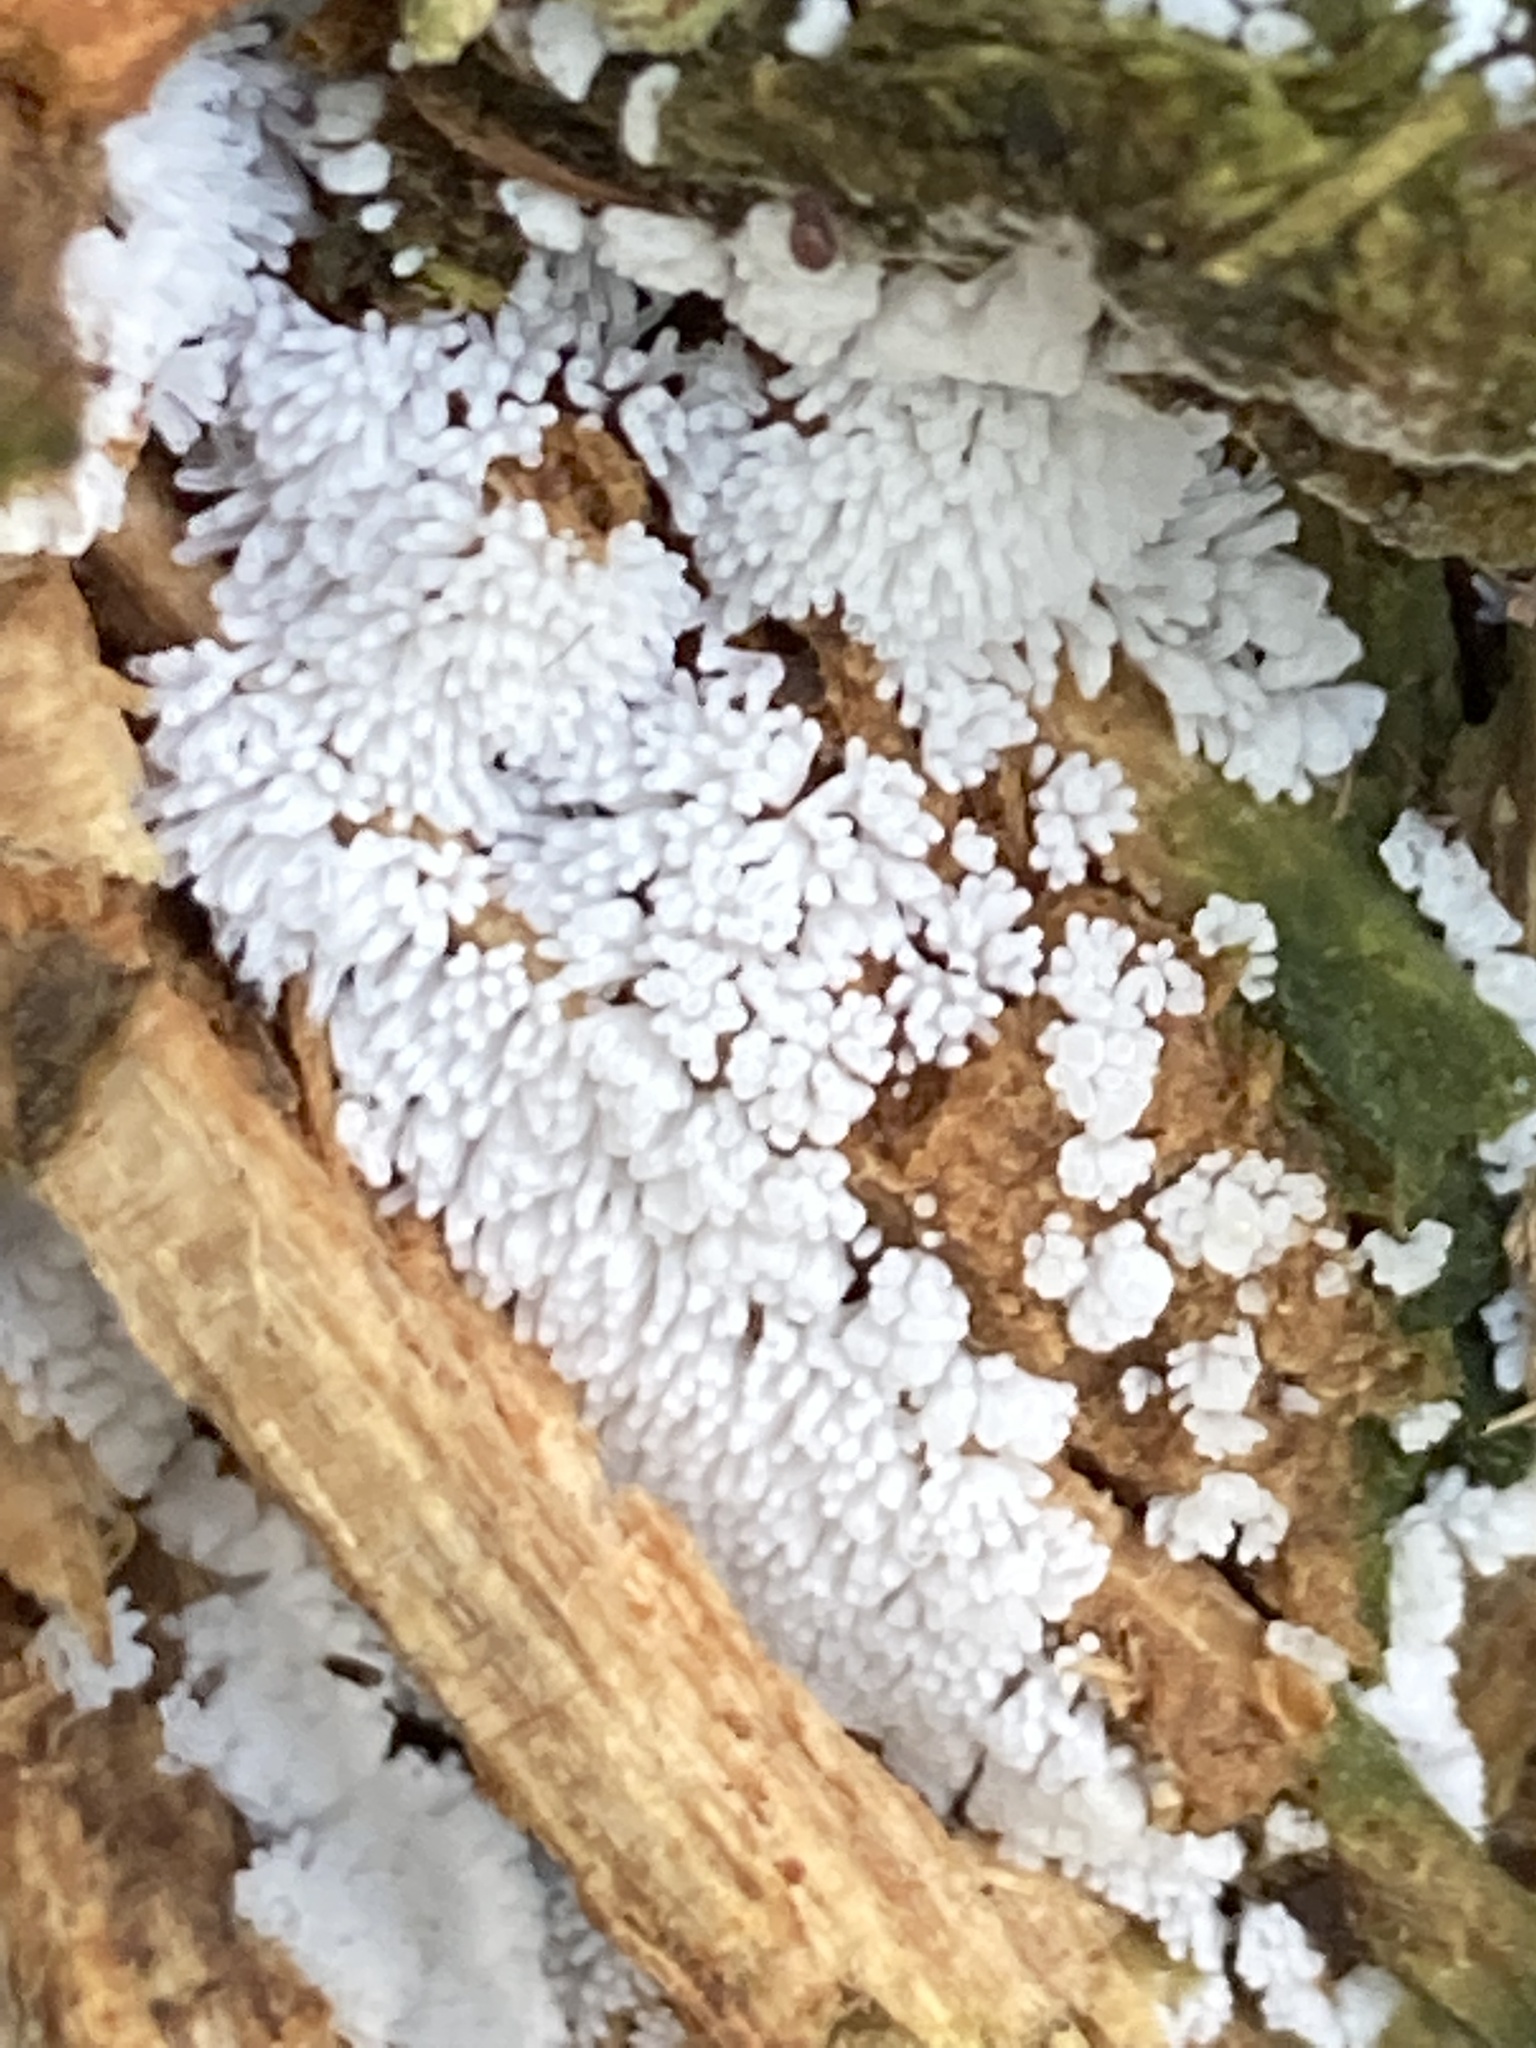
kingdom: Protozoa
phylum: Mycetozoa
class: Protosteliomycetes
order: Ceratiomyxales
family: Ceratiomyxaceae
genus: Ceratiomyxa
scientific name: Ceratiomyxa fruticulosa
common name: Honeycomb coral slime mold
